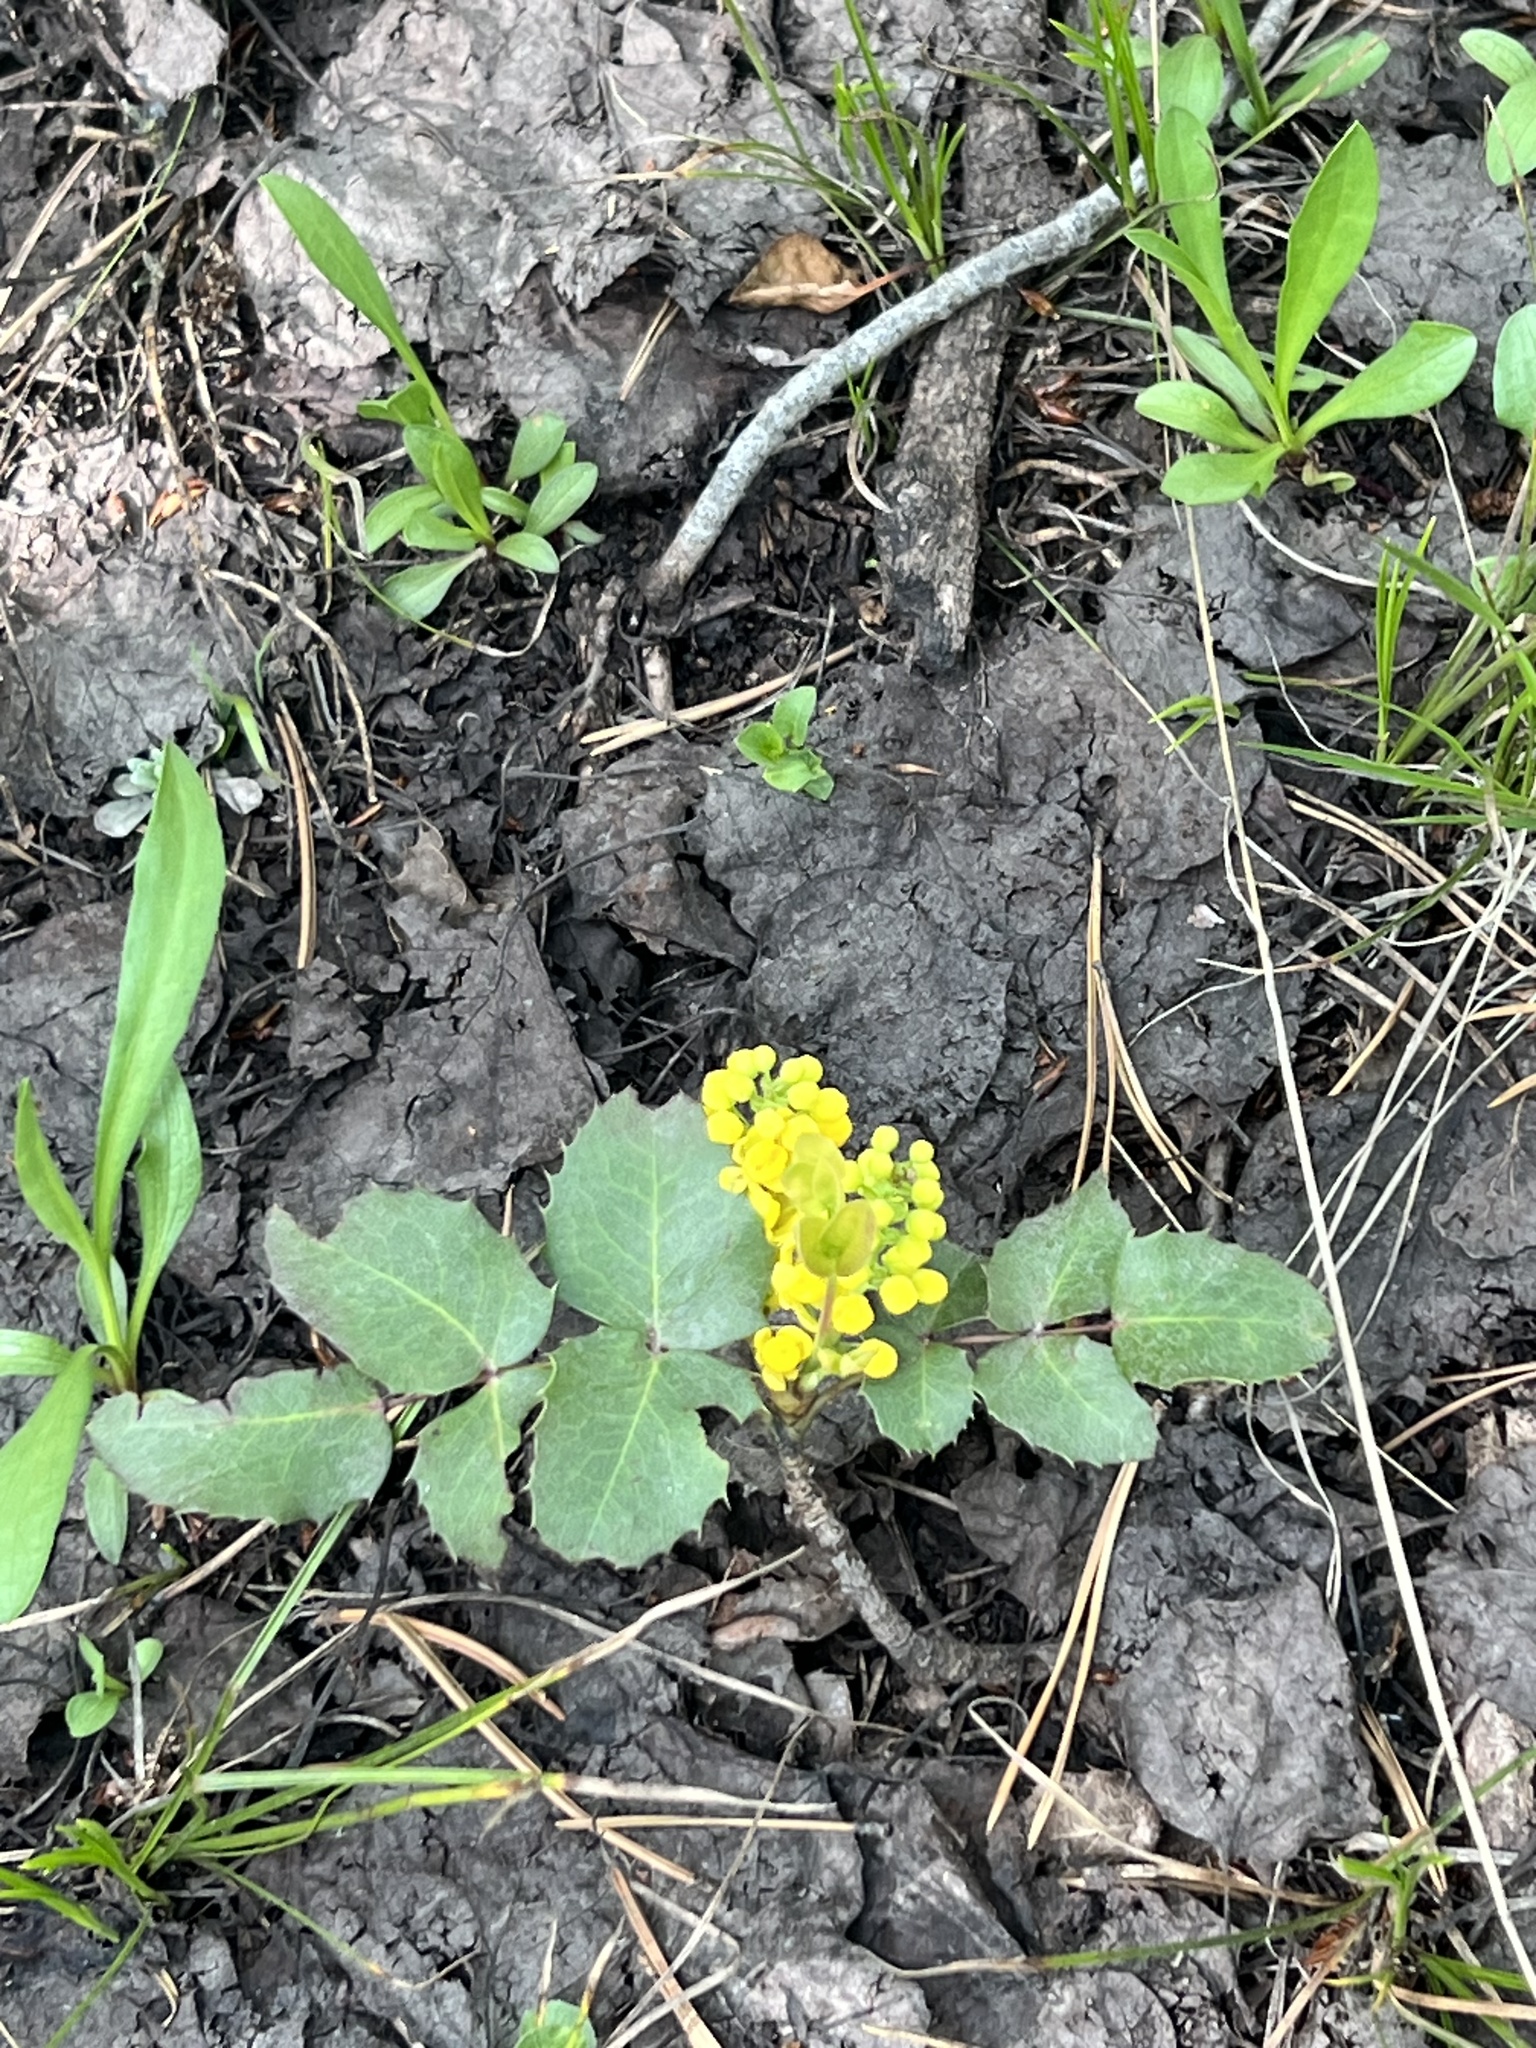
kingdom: Plantae
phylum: Tracheophyta
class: Magnoliopsida
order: Ranunculales
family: Berberidaceae
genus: Mahonia
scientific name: Mahonia repens
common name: Creeping oregon-grape
